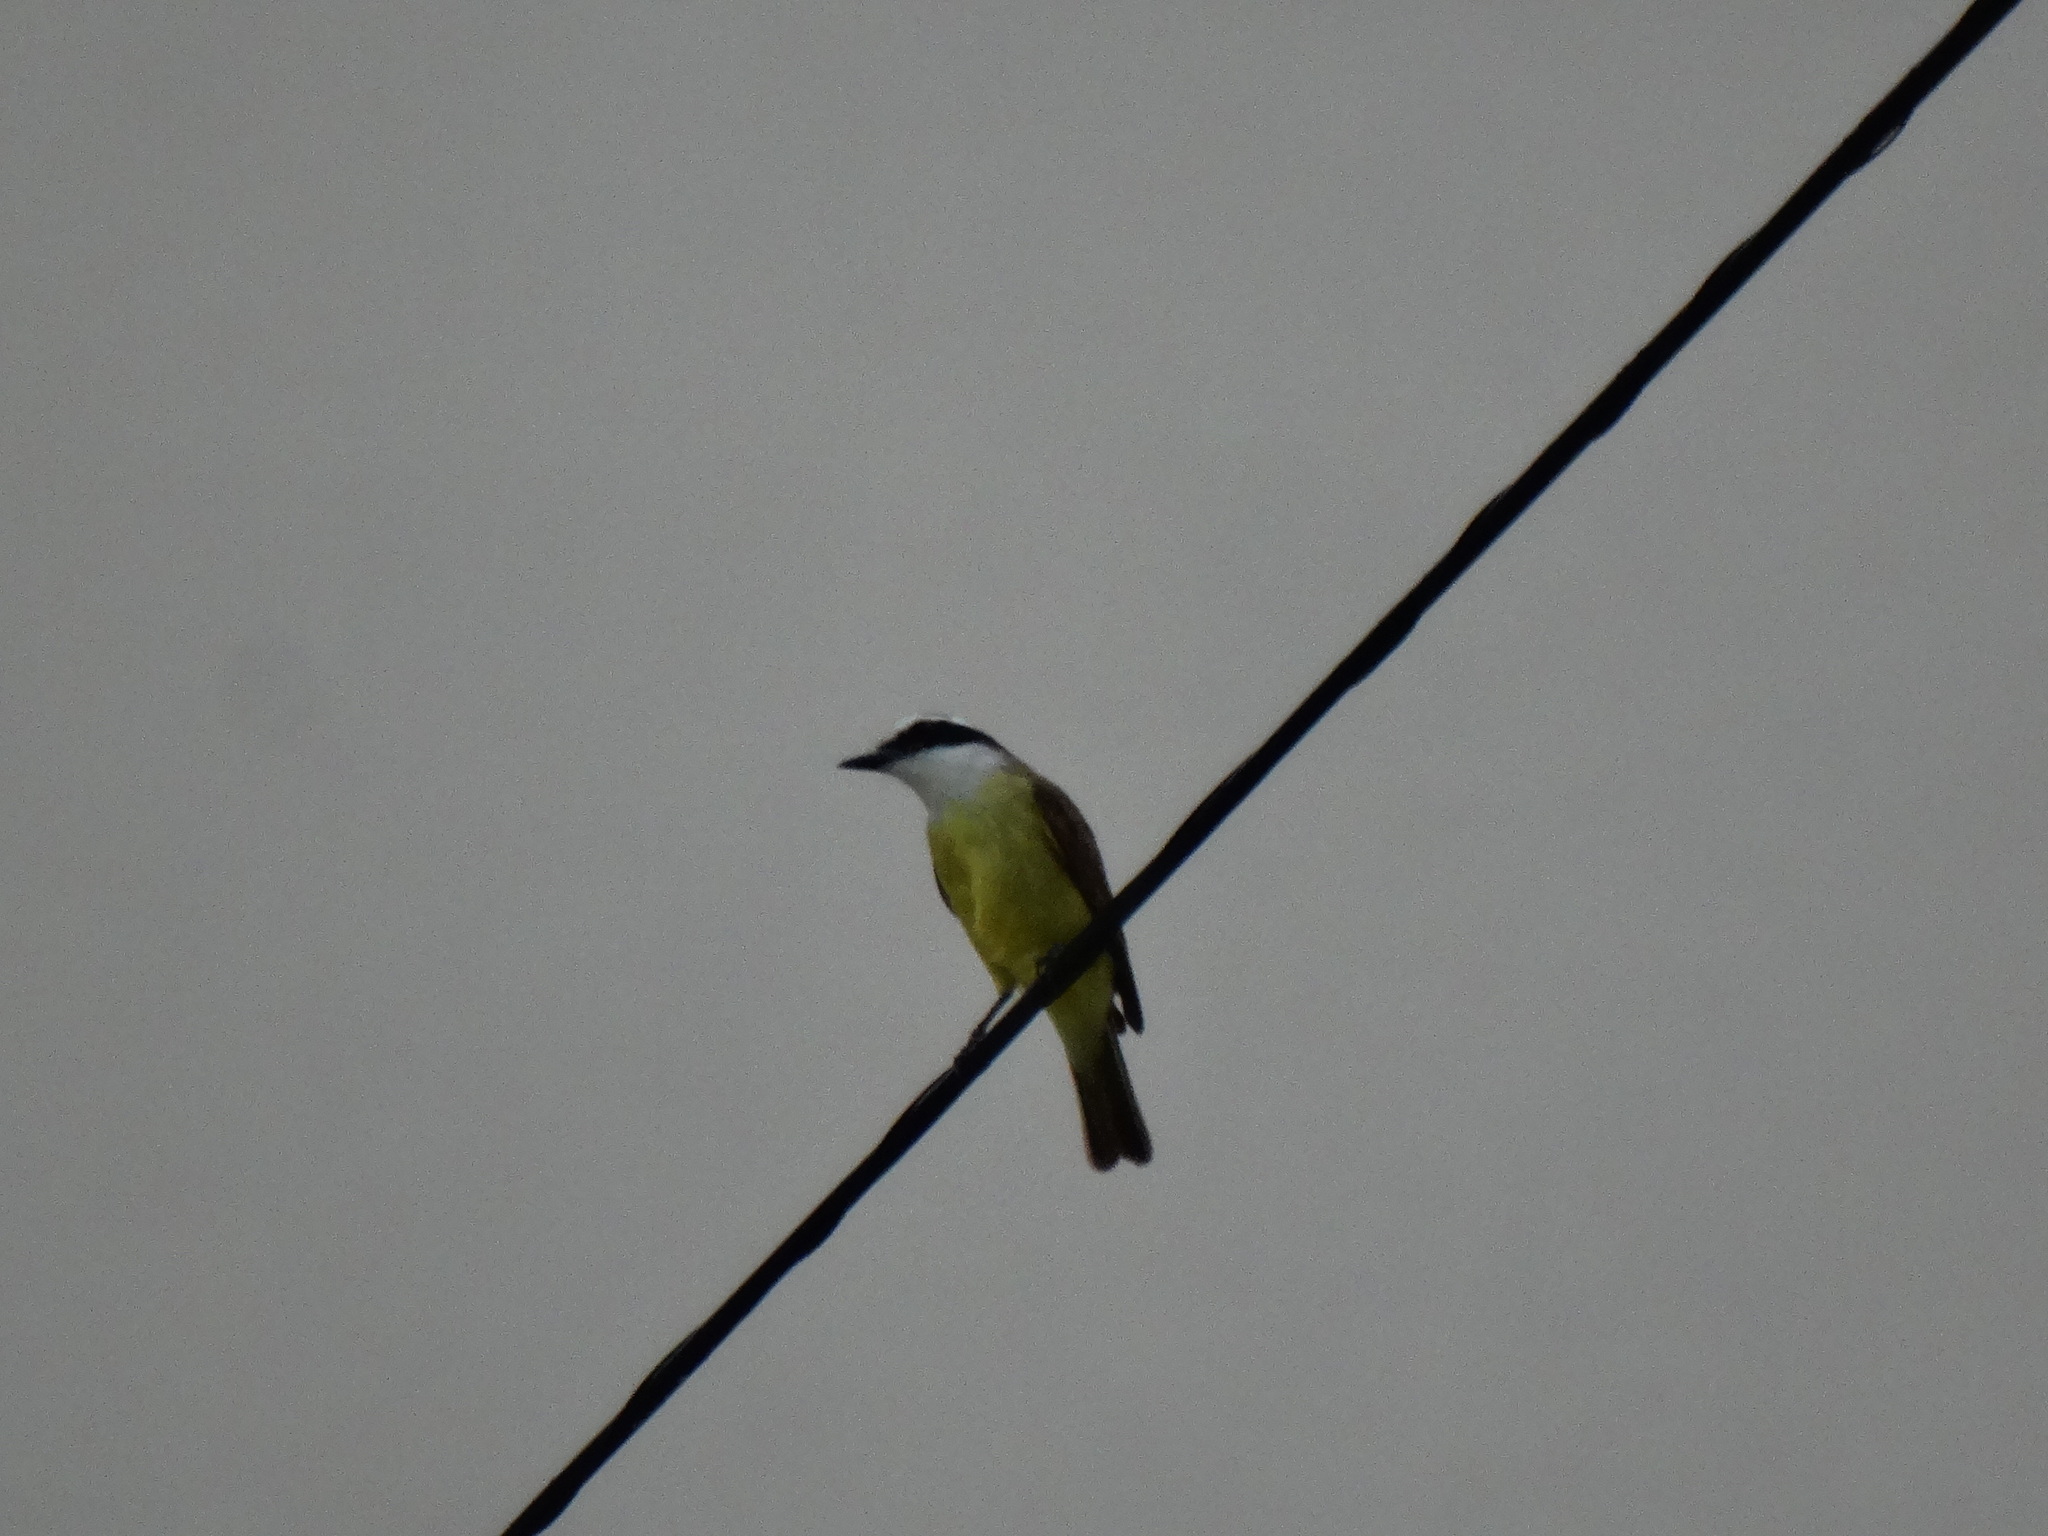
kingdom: Animalia
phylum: Chordata
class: Aves
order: Passeriformes
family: Tyrannidae
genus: Pitangus
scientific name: Pitangus sulphuratus
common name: Great kiskadee
